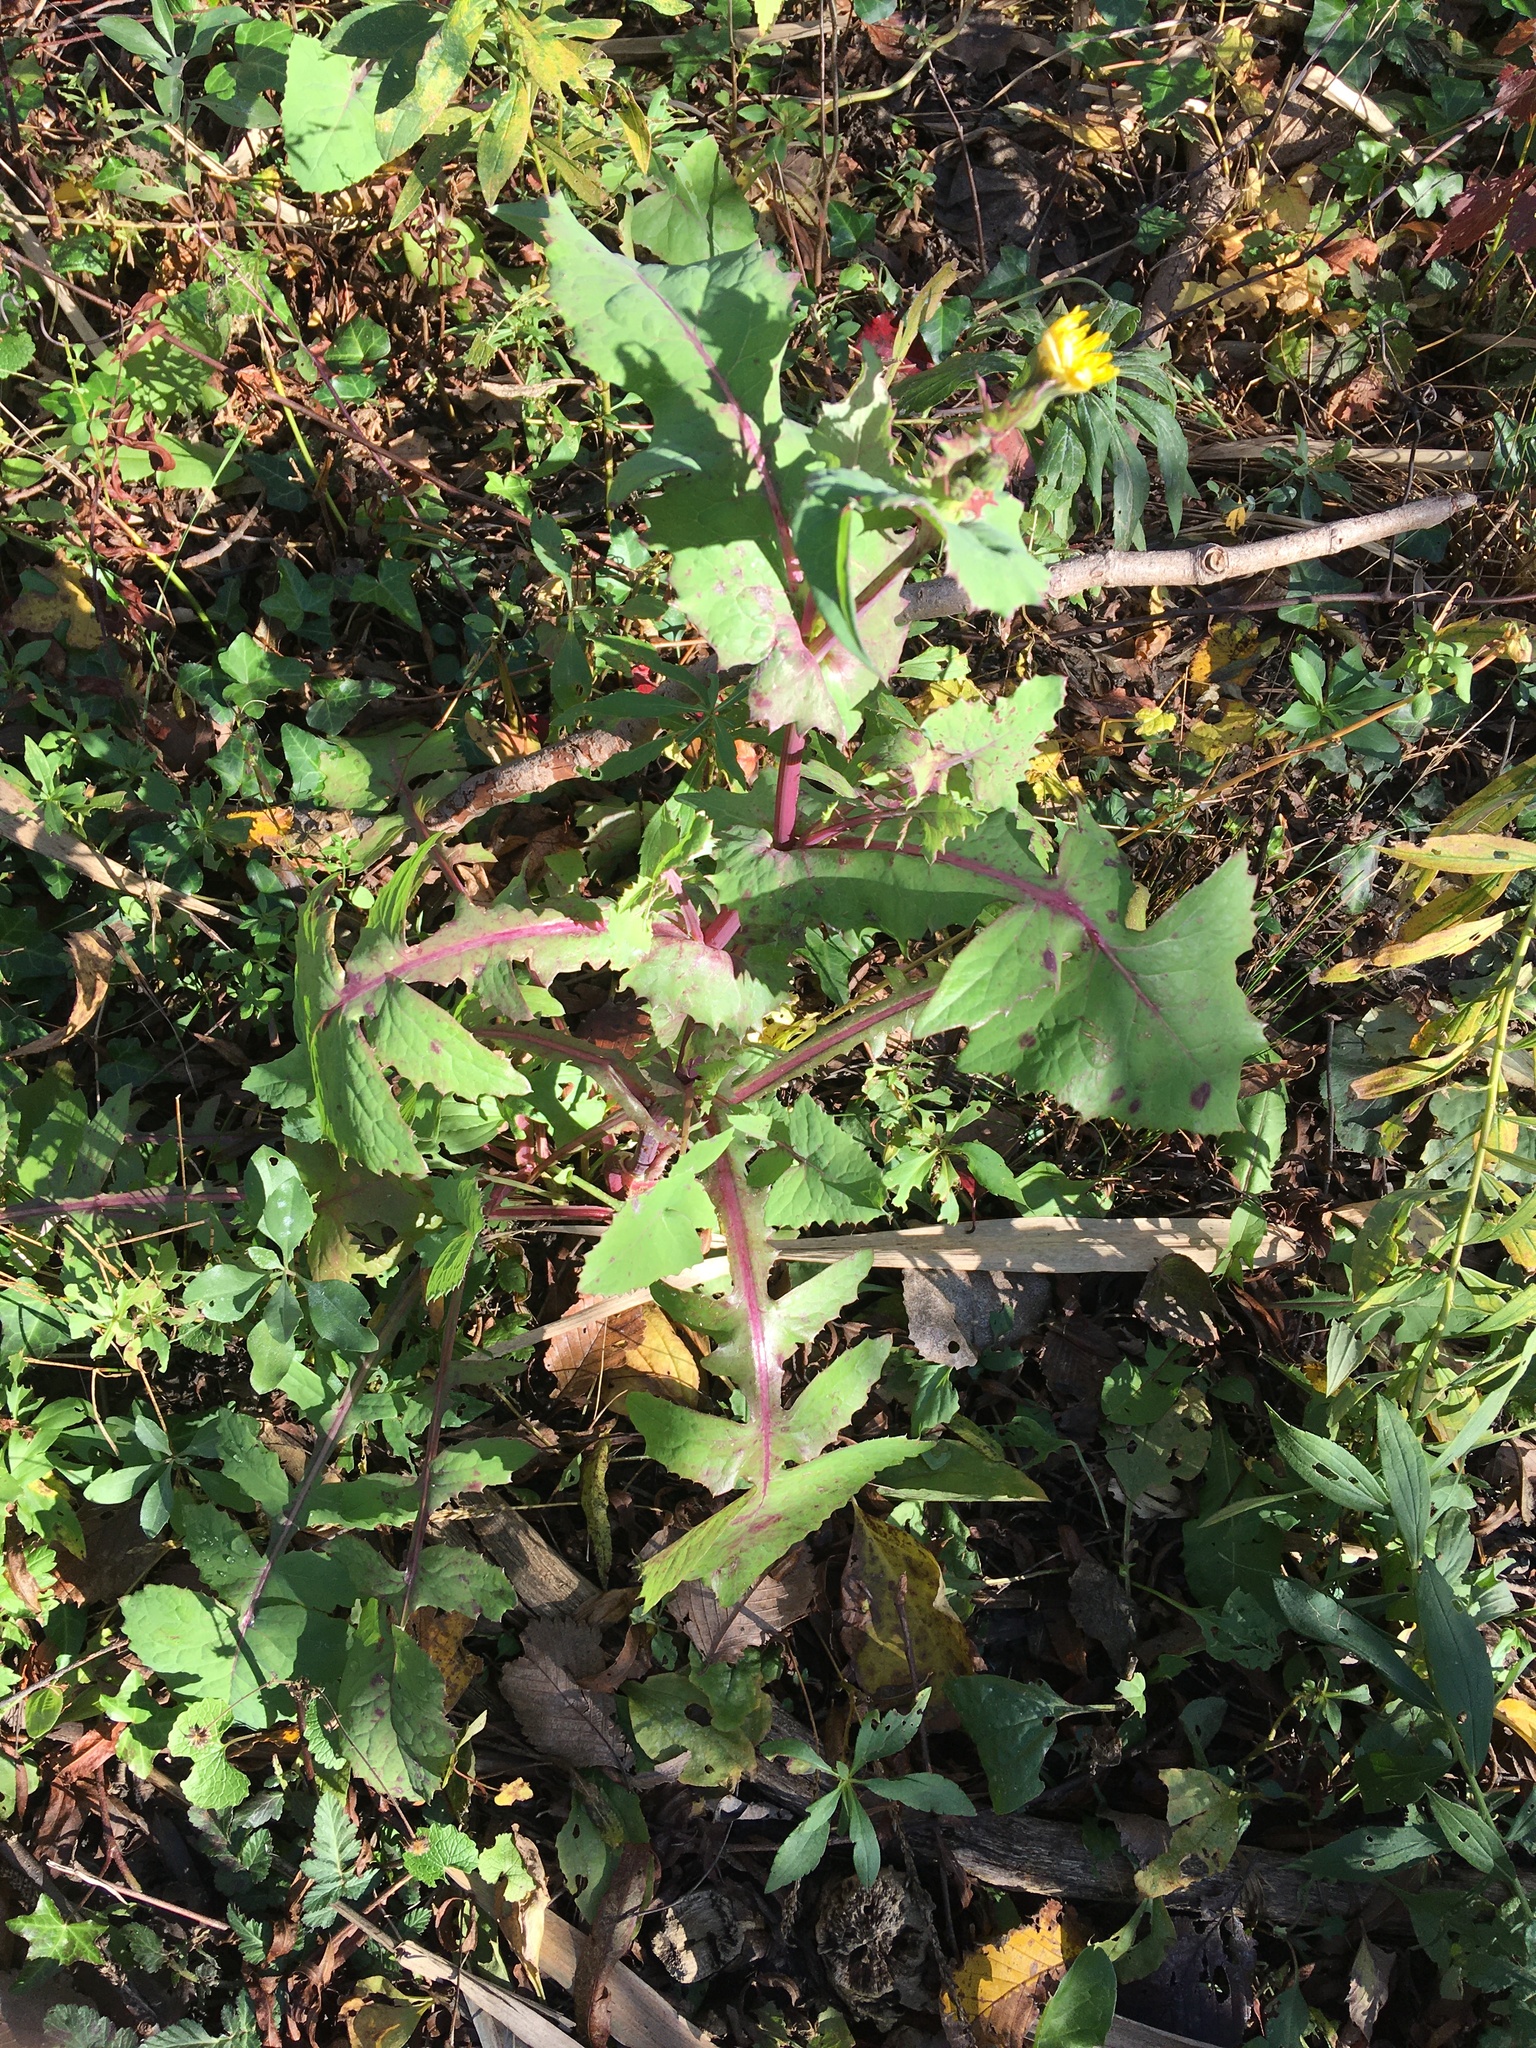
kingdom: Plantae
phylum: Tracheophyta
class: Magnoliopsida
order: Asterales
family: Asteraceae
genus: Sonchus
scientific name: Sonchus oleraceus
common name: Common sowthistle
